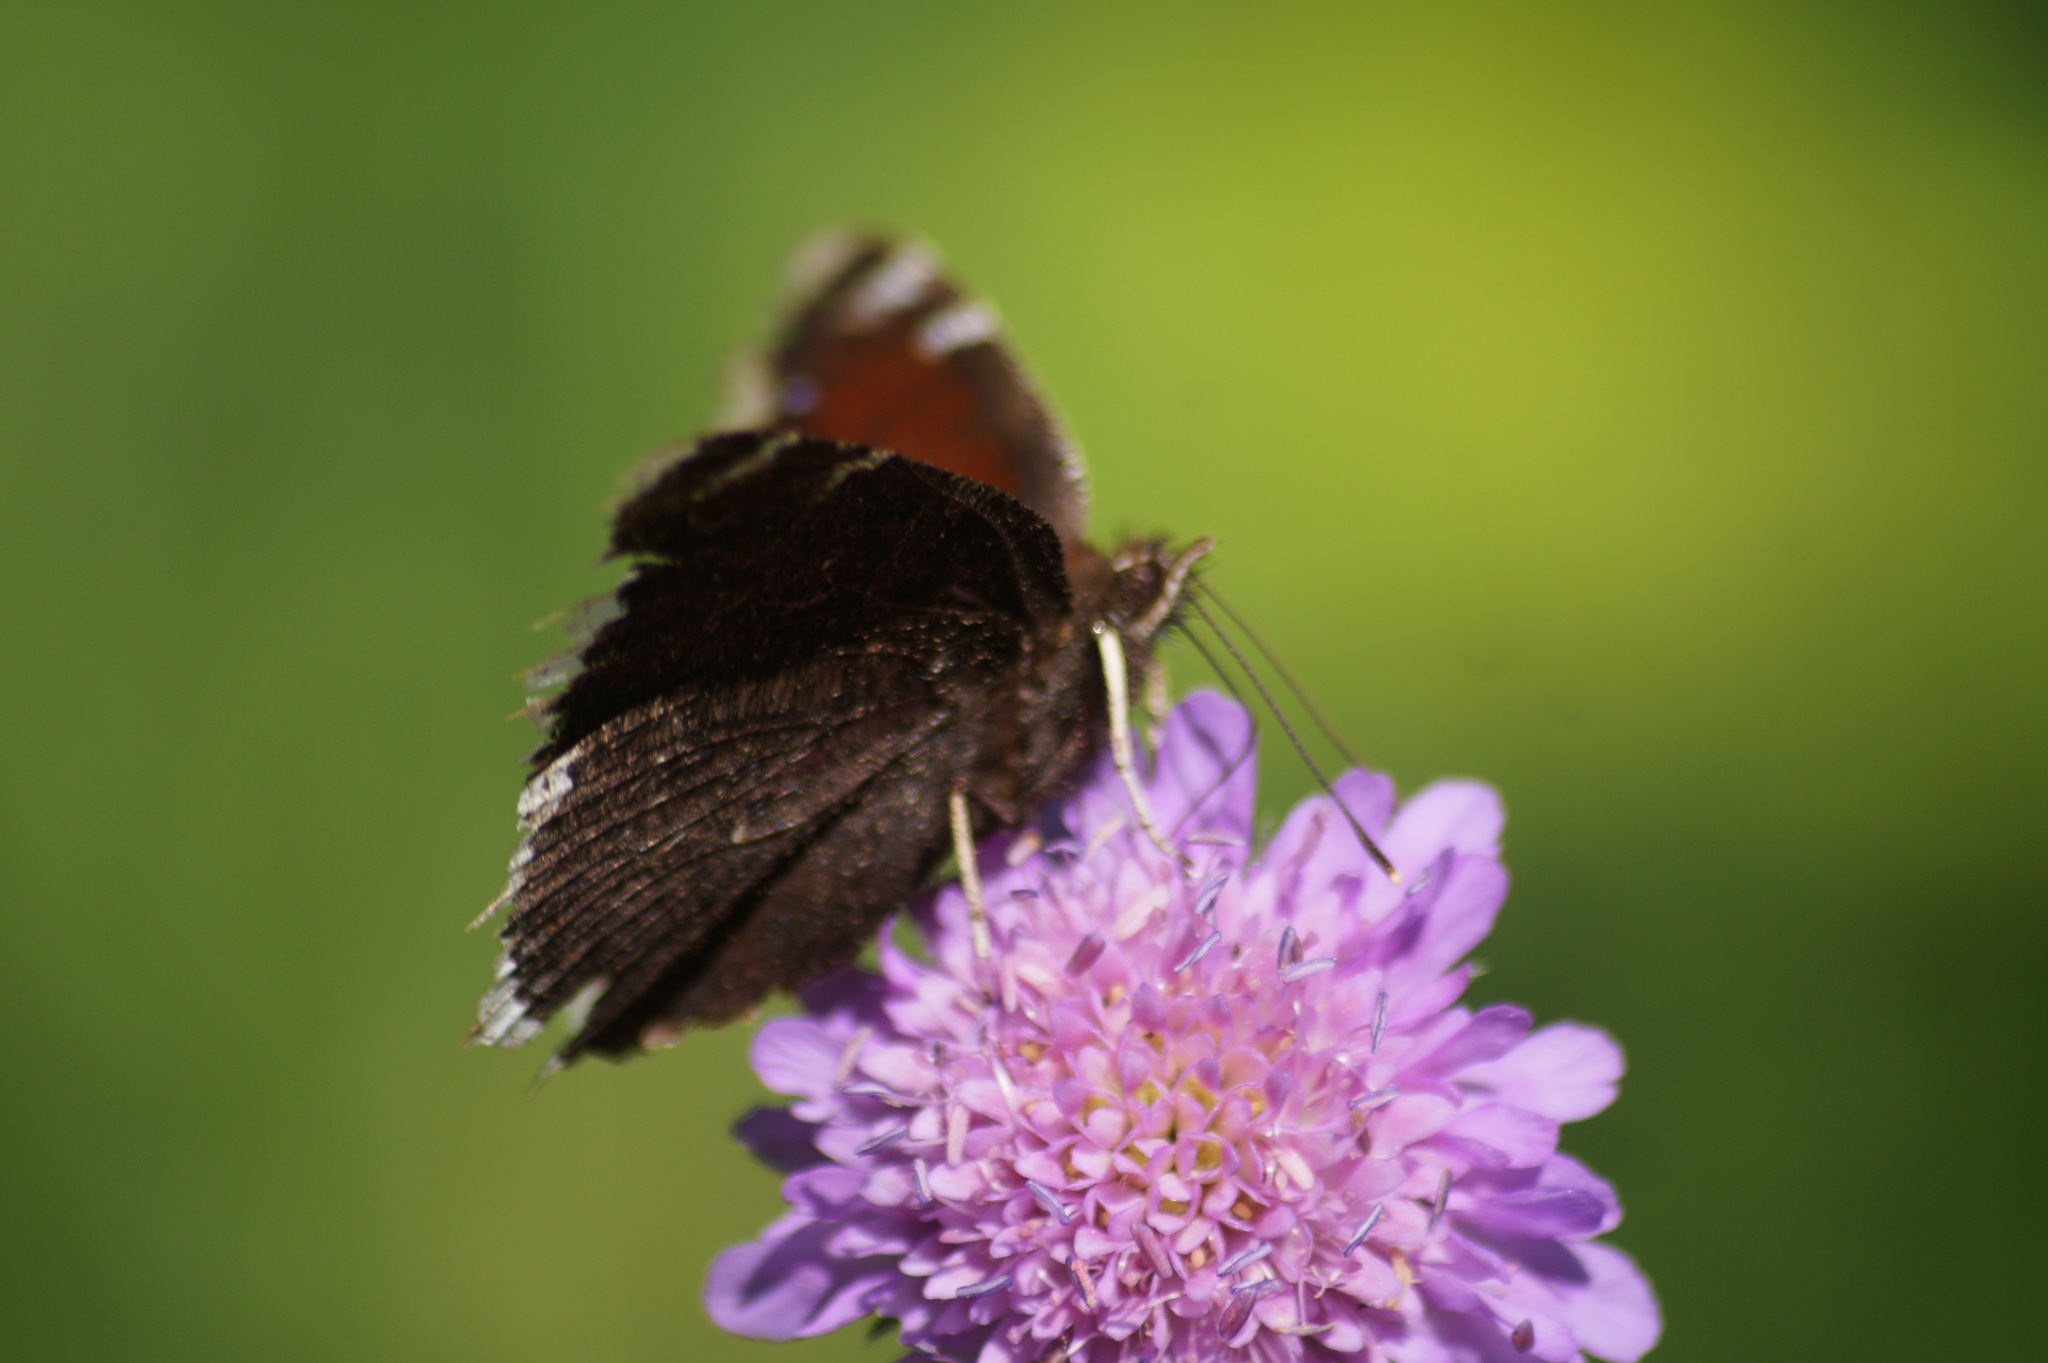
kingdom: Animalia
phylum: Arthropoda
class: Insecta
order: Lepidoptera
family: Nymphalidae
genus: Nymphalis
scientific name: Nymphalis antiopa
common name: Camberwell beauty
